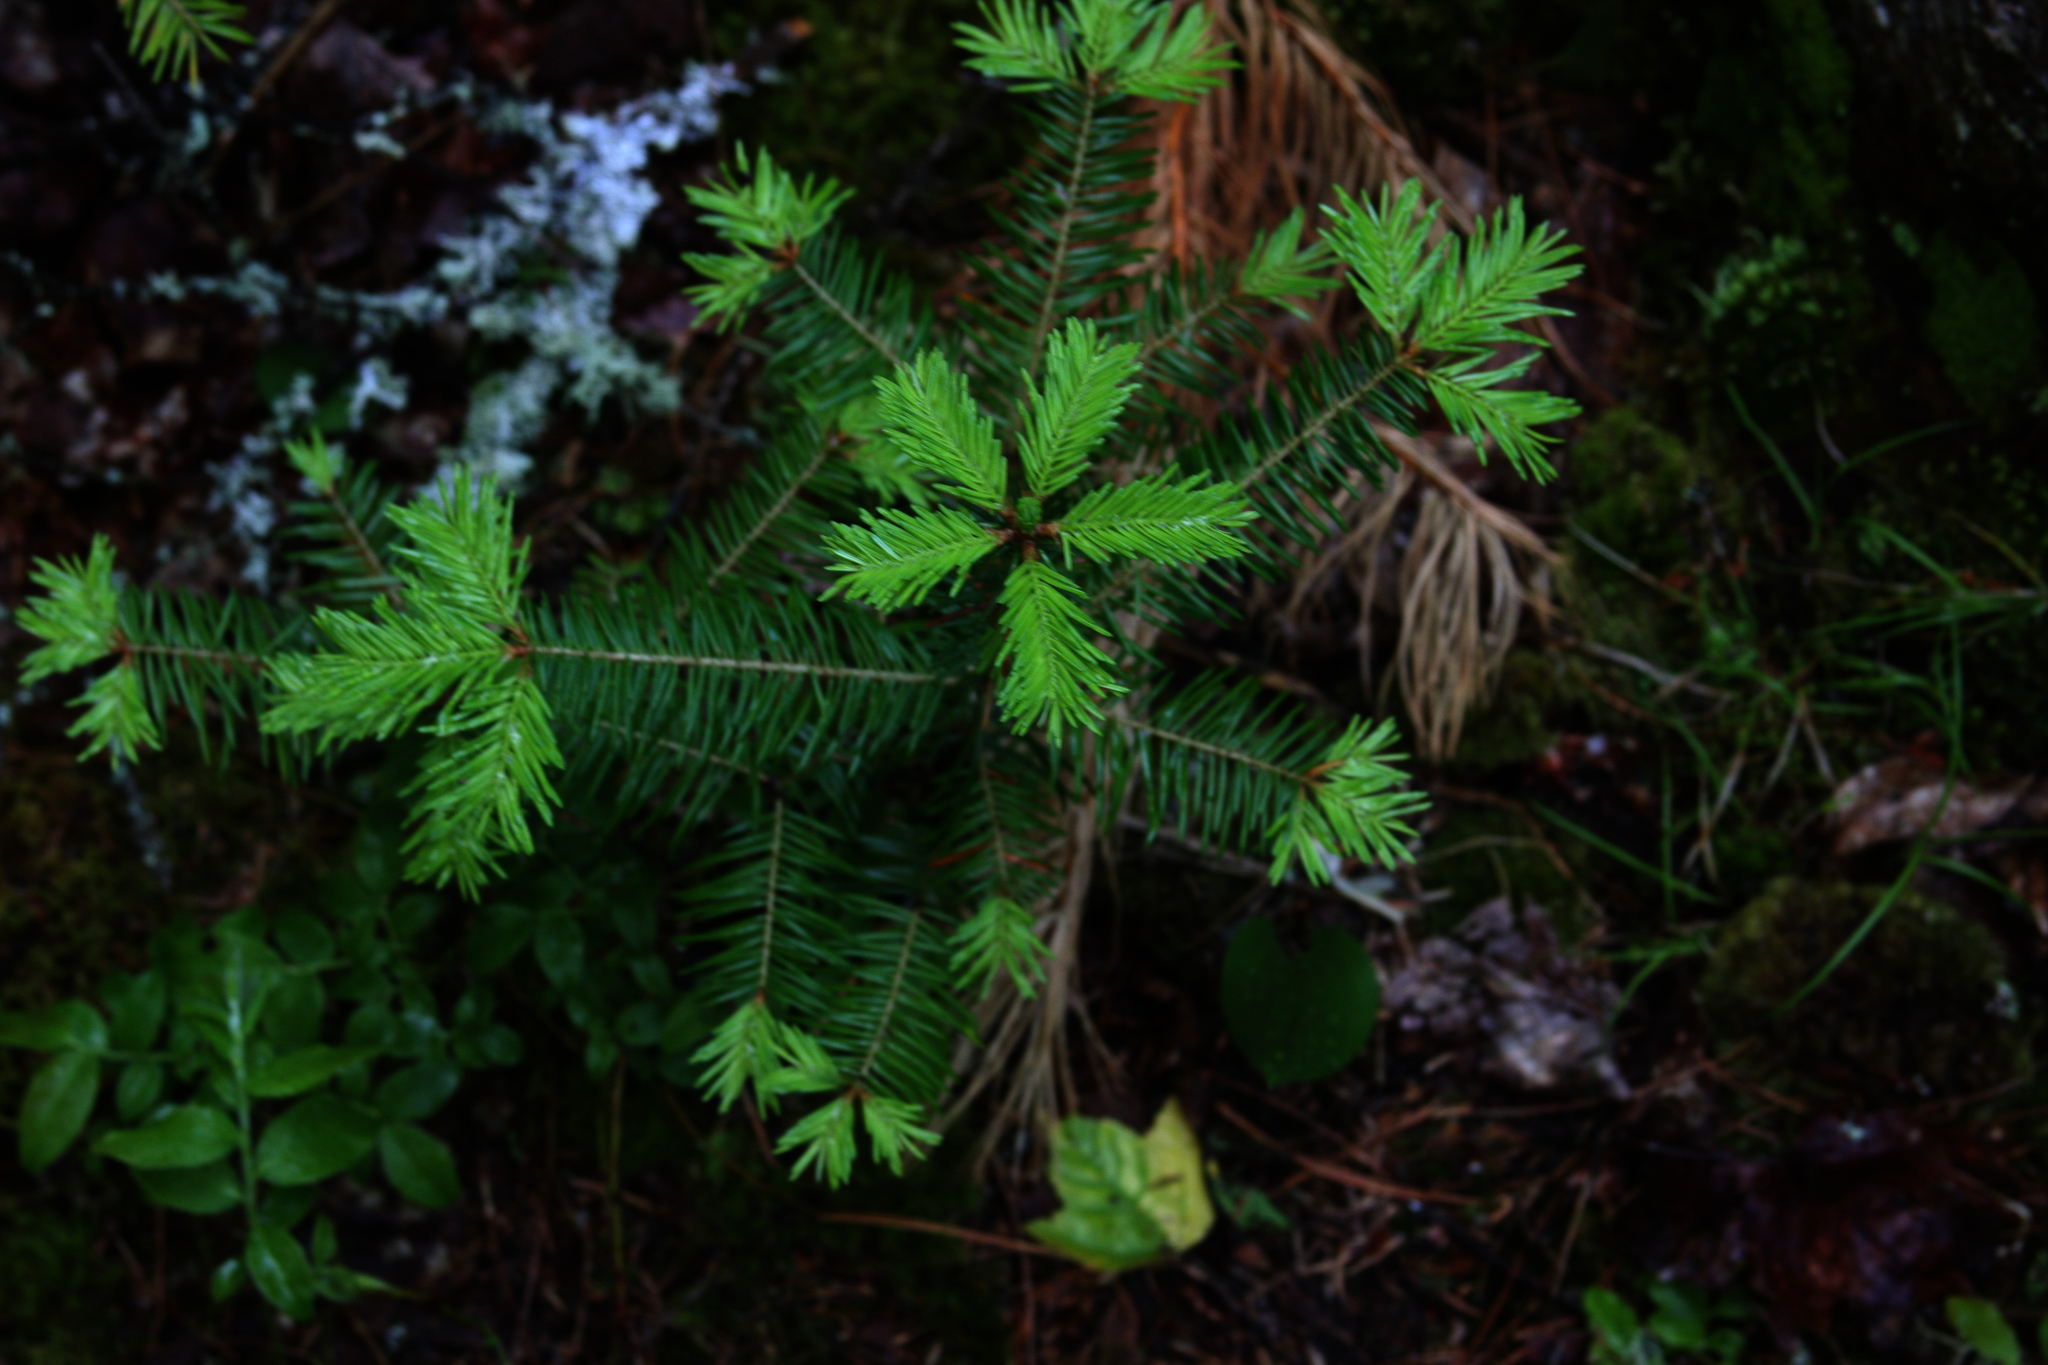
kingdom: Plantae
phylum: Tracheophyta
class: Pinopsida
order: Pinales
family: Pinaceae
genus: Abies
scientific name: Abies balsamea
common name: Balsam fir
